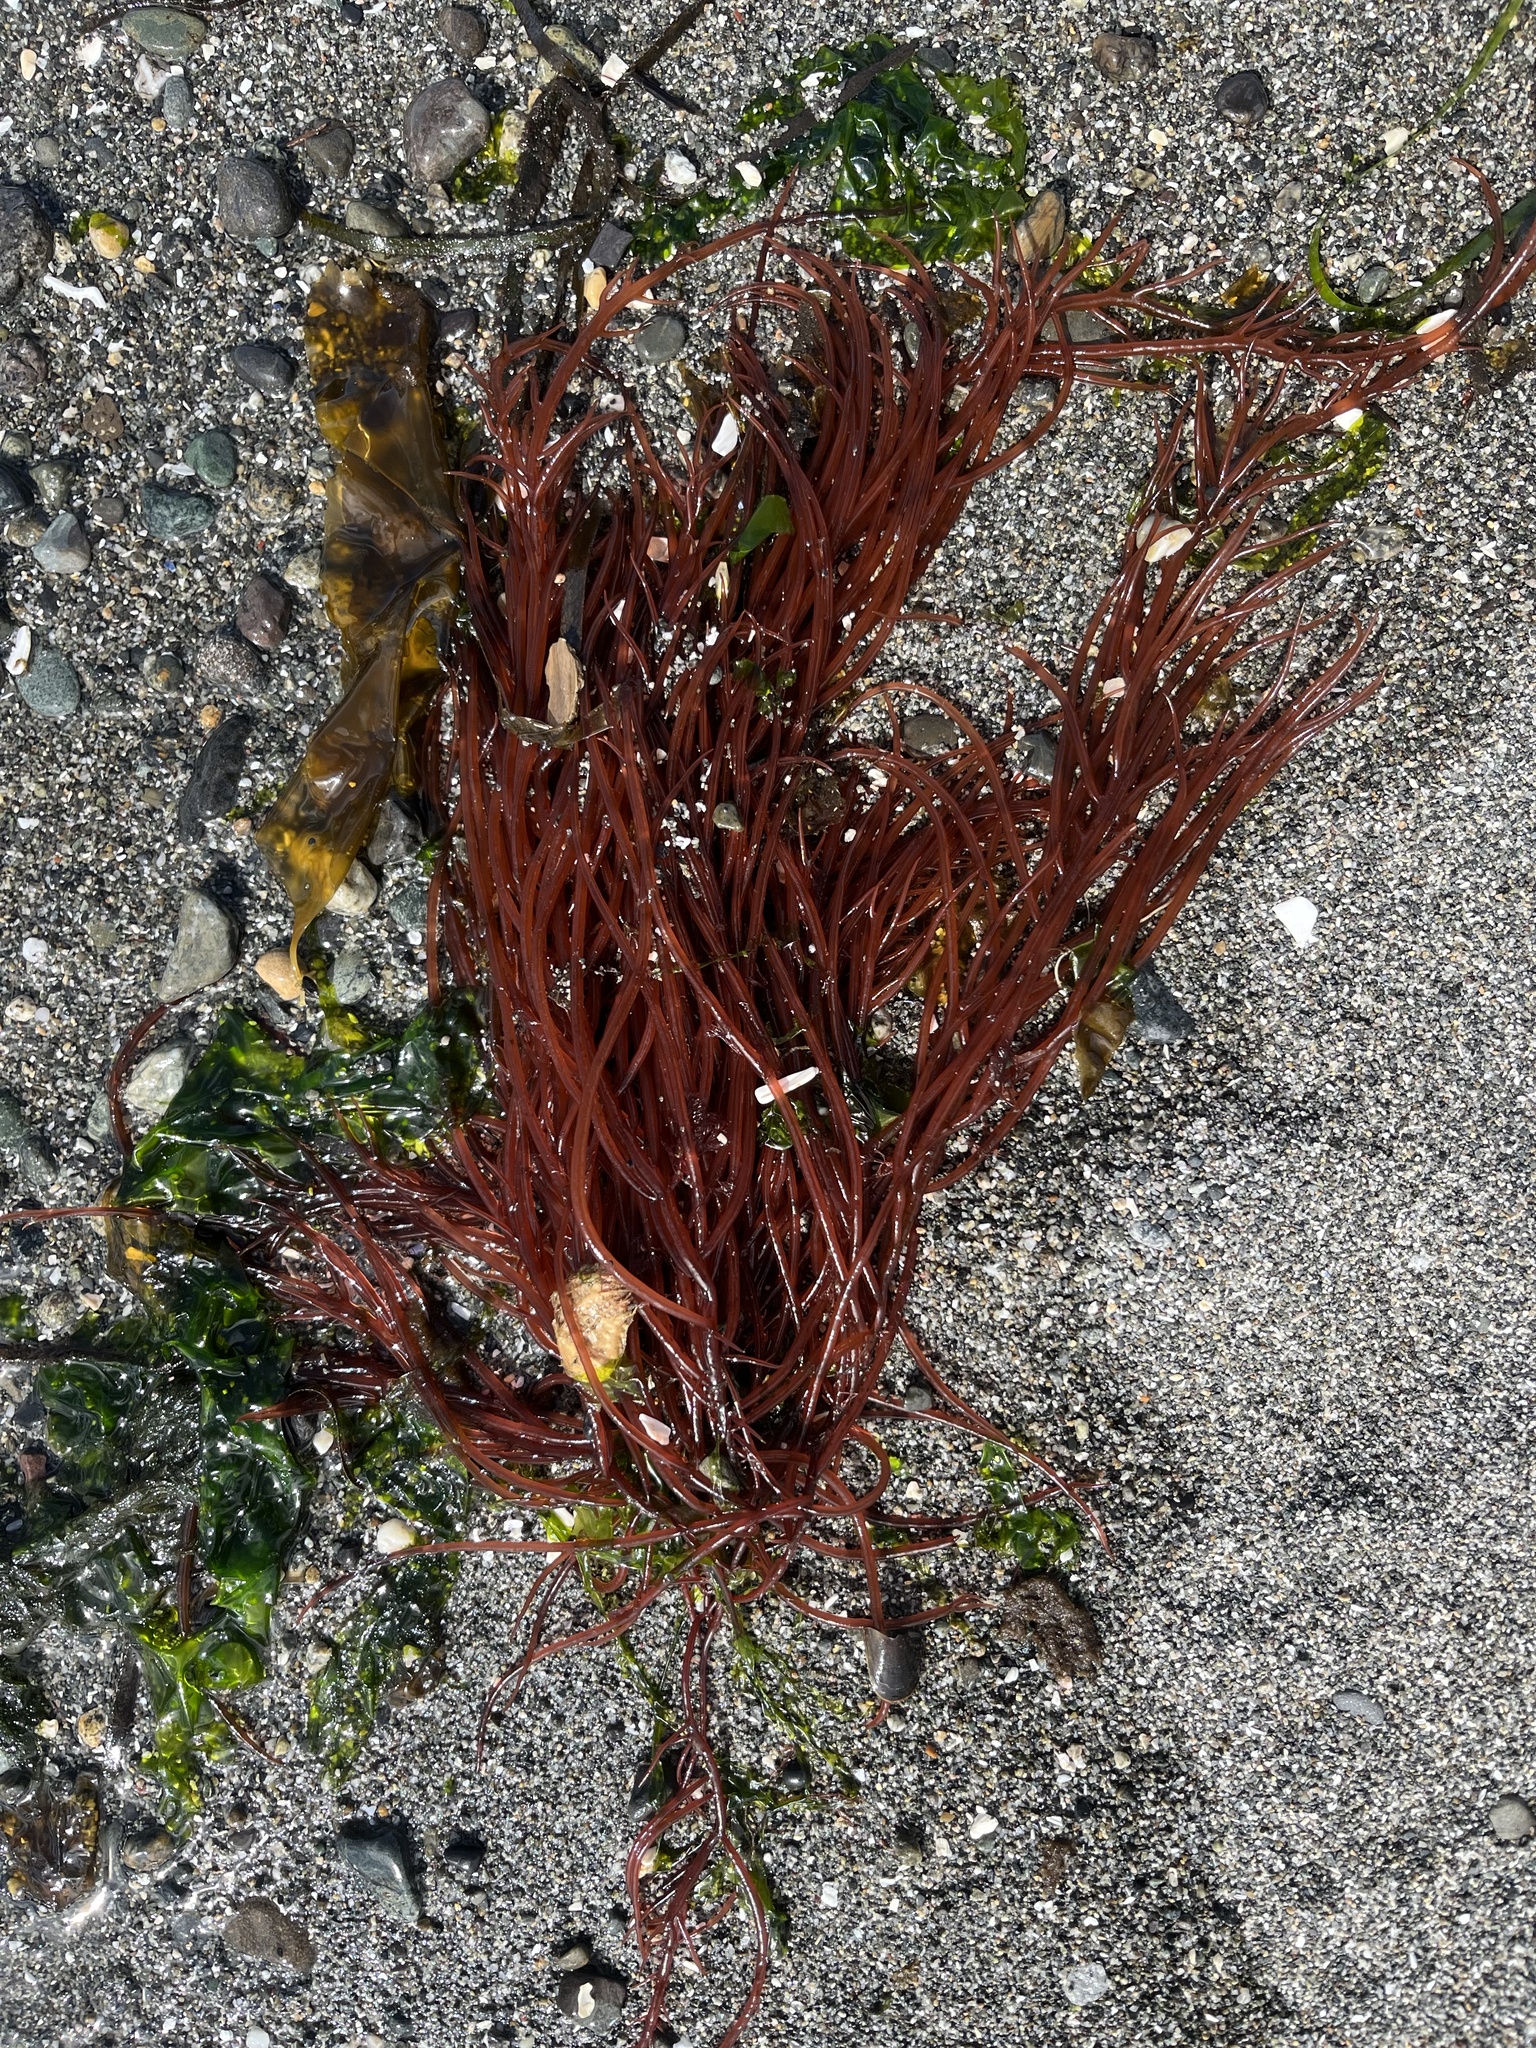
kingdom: Plantae
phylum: Rhodophyta
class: Florideophyceae
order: Gigartinales
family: Solieriaceae
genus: Sarcodiotheca
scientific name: Sarcodiotheca gaudichaudii
